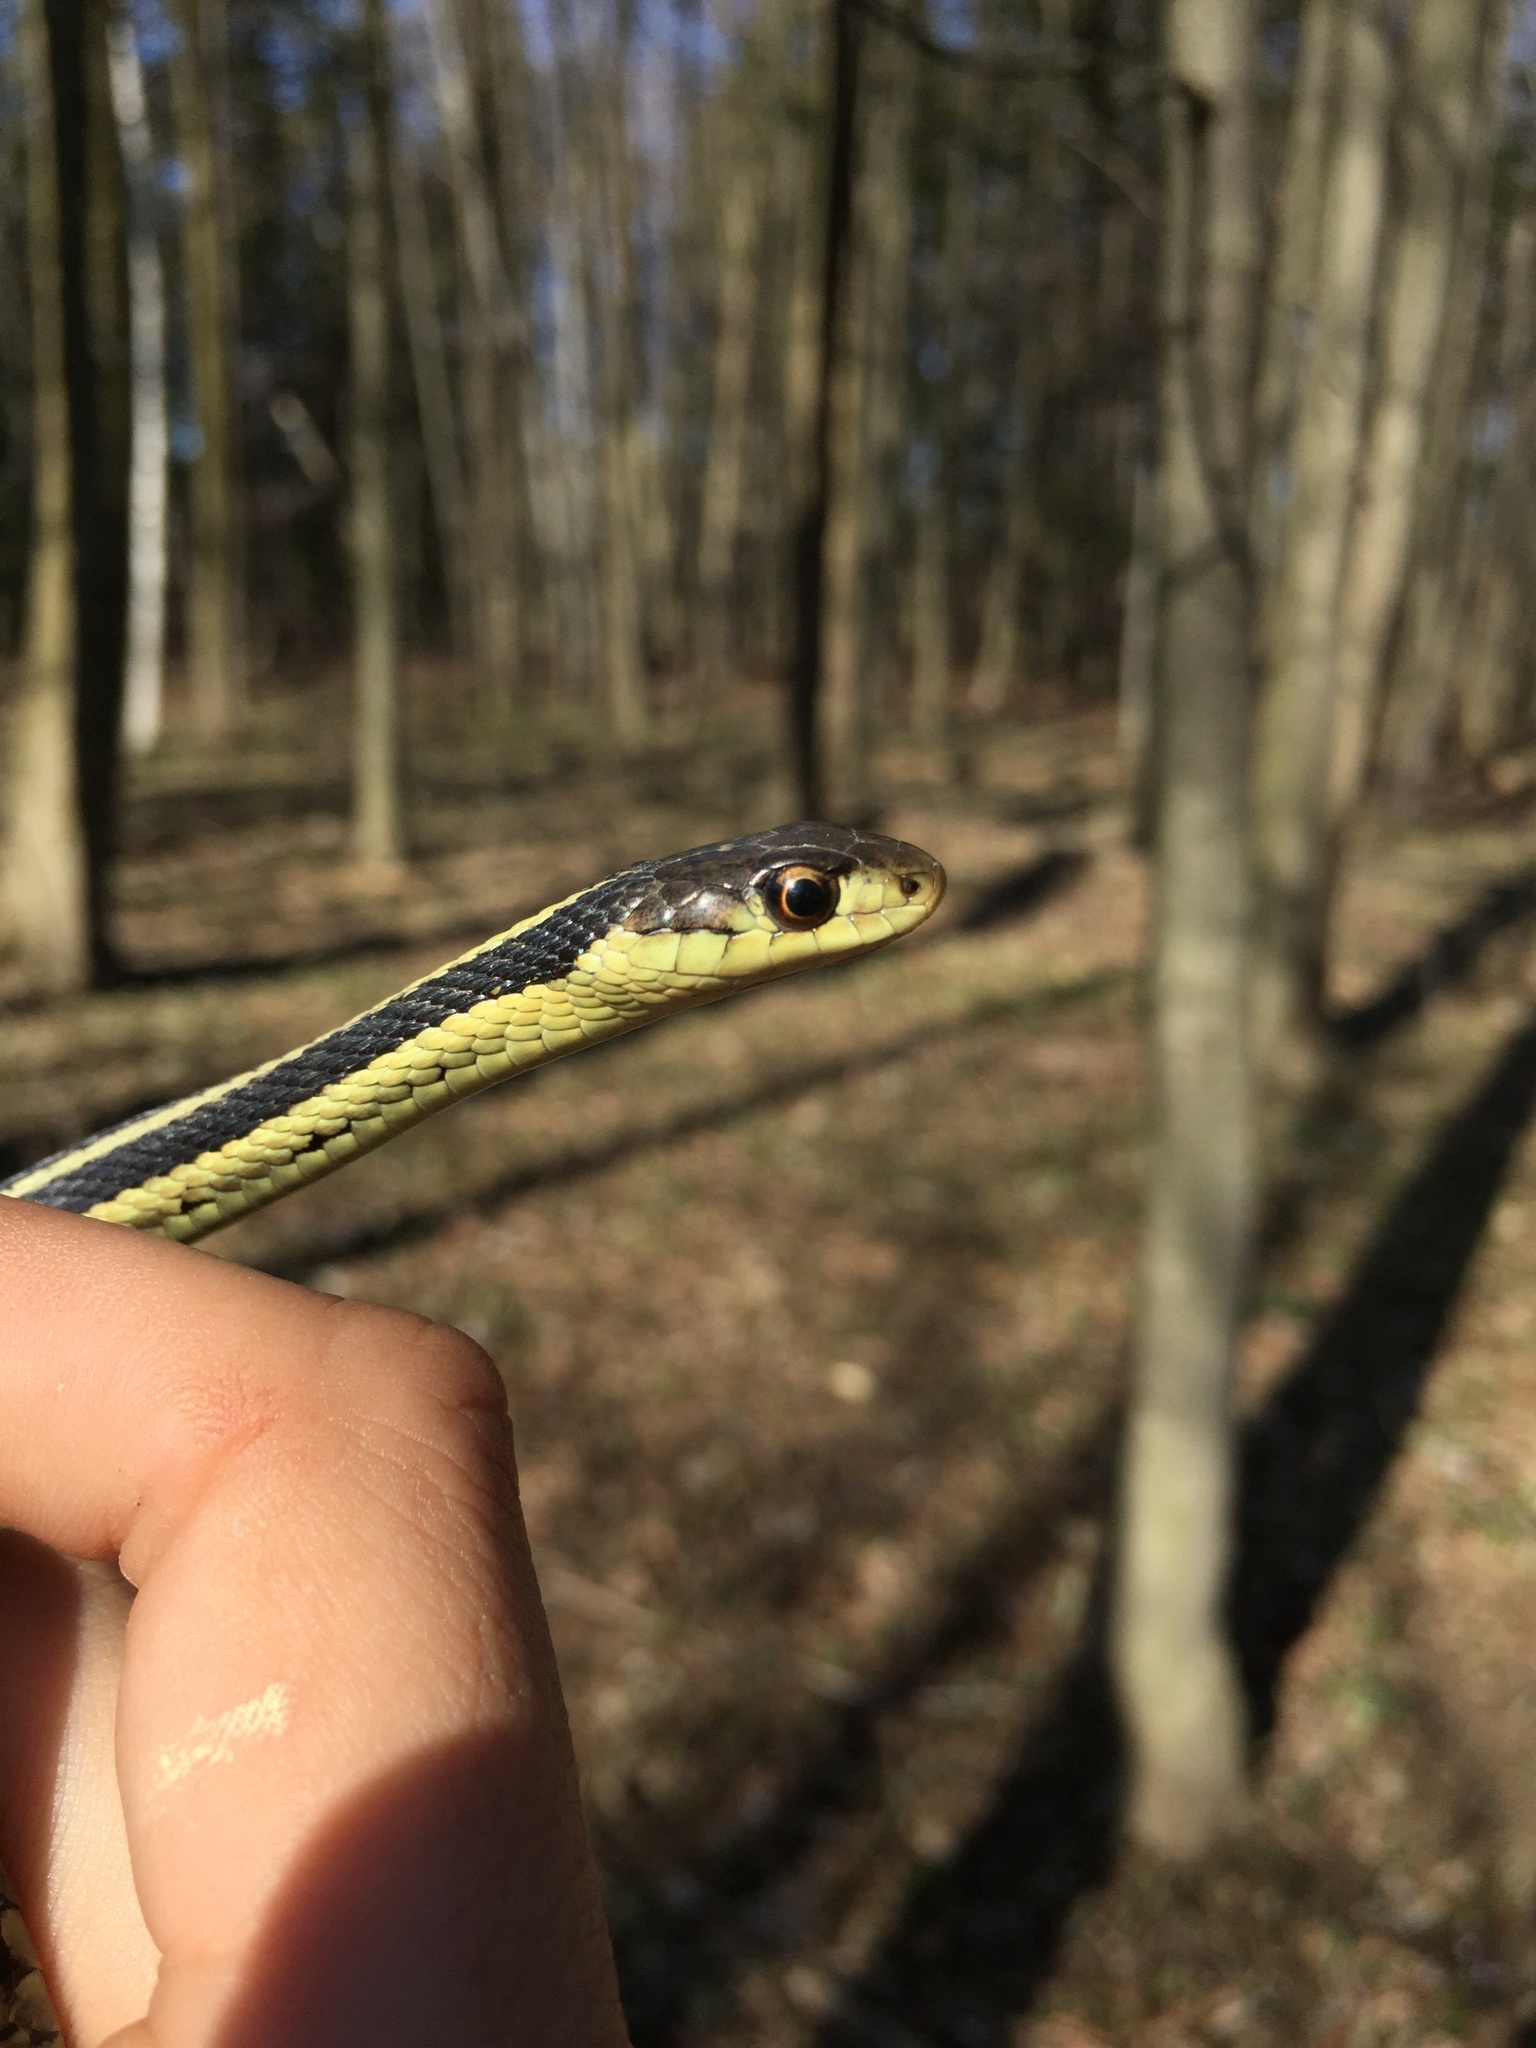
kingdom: Animalia
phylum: Chordata
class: Squamata
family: Colubridae
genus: Thamnophis
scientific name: Thamnophis sirtalis
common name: Common garter snake
